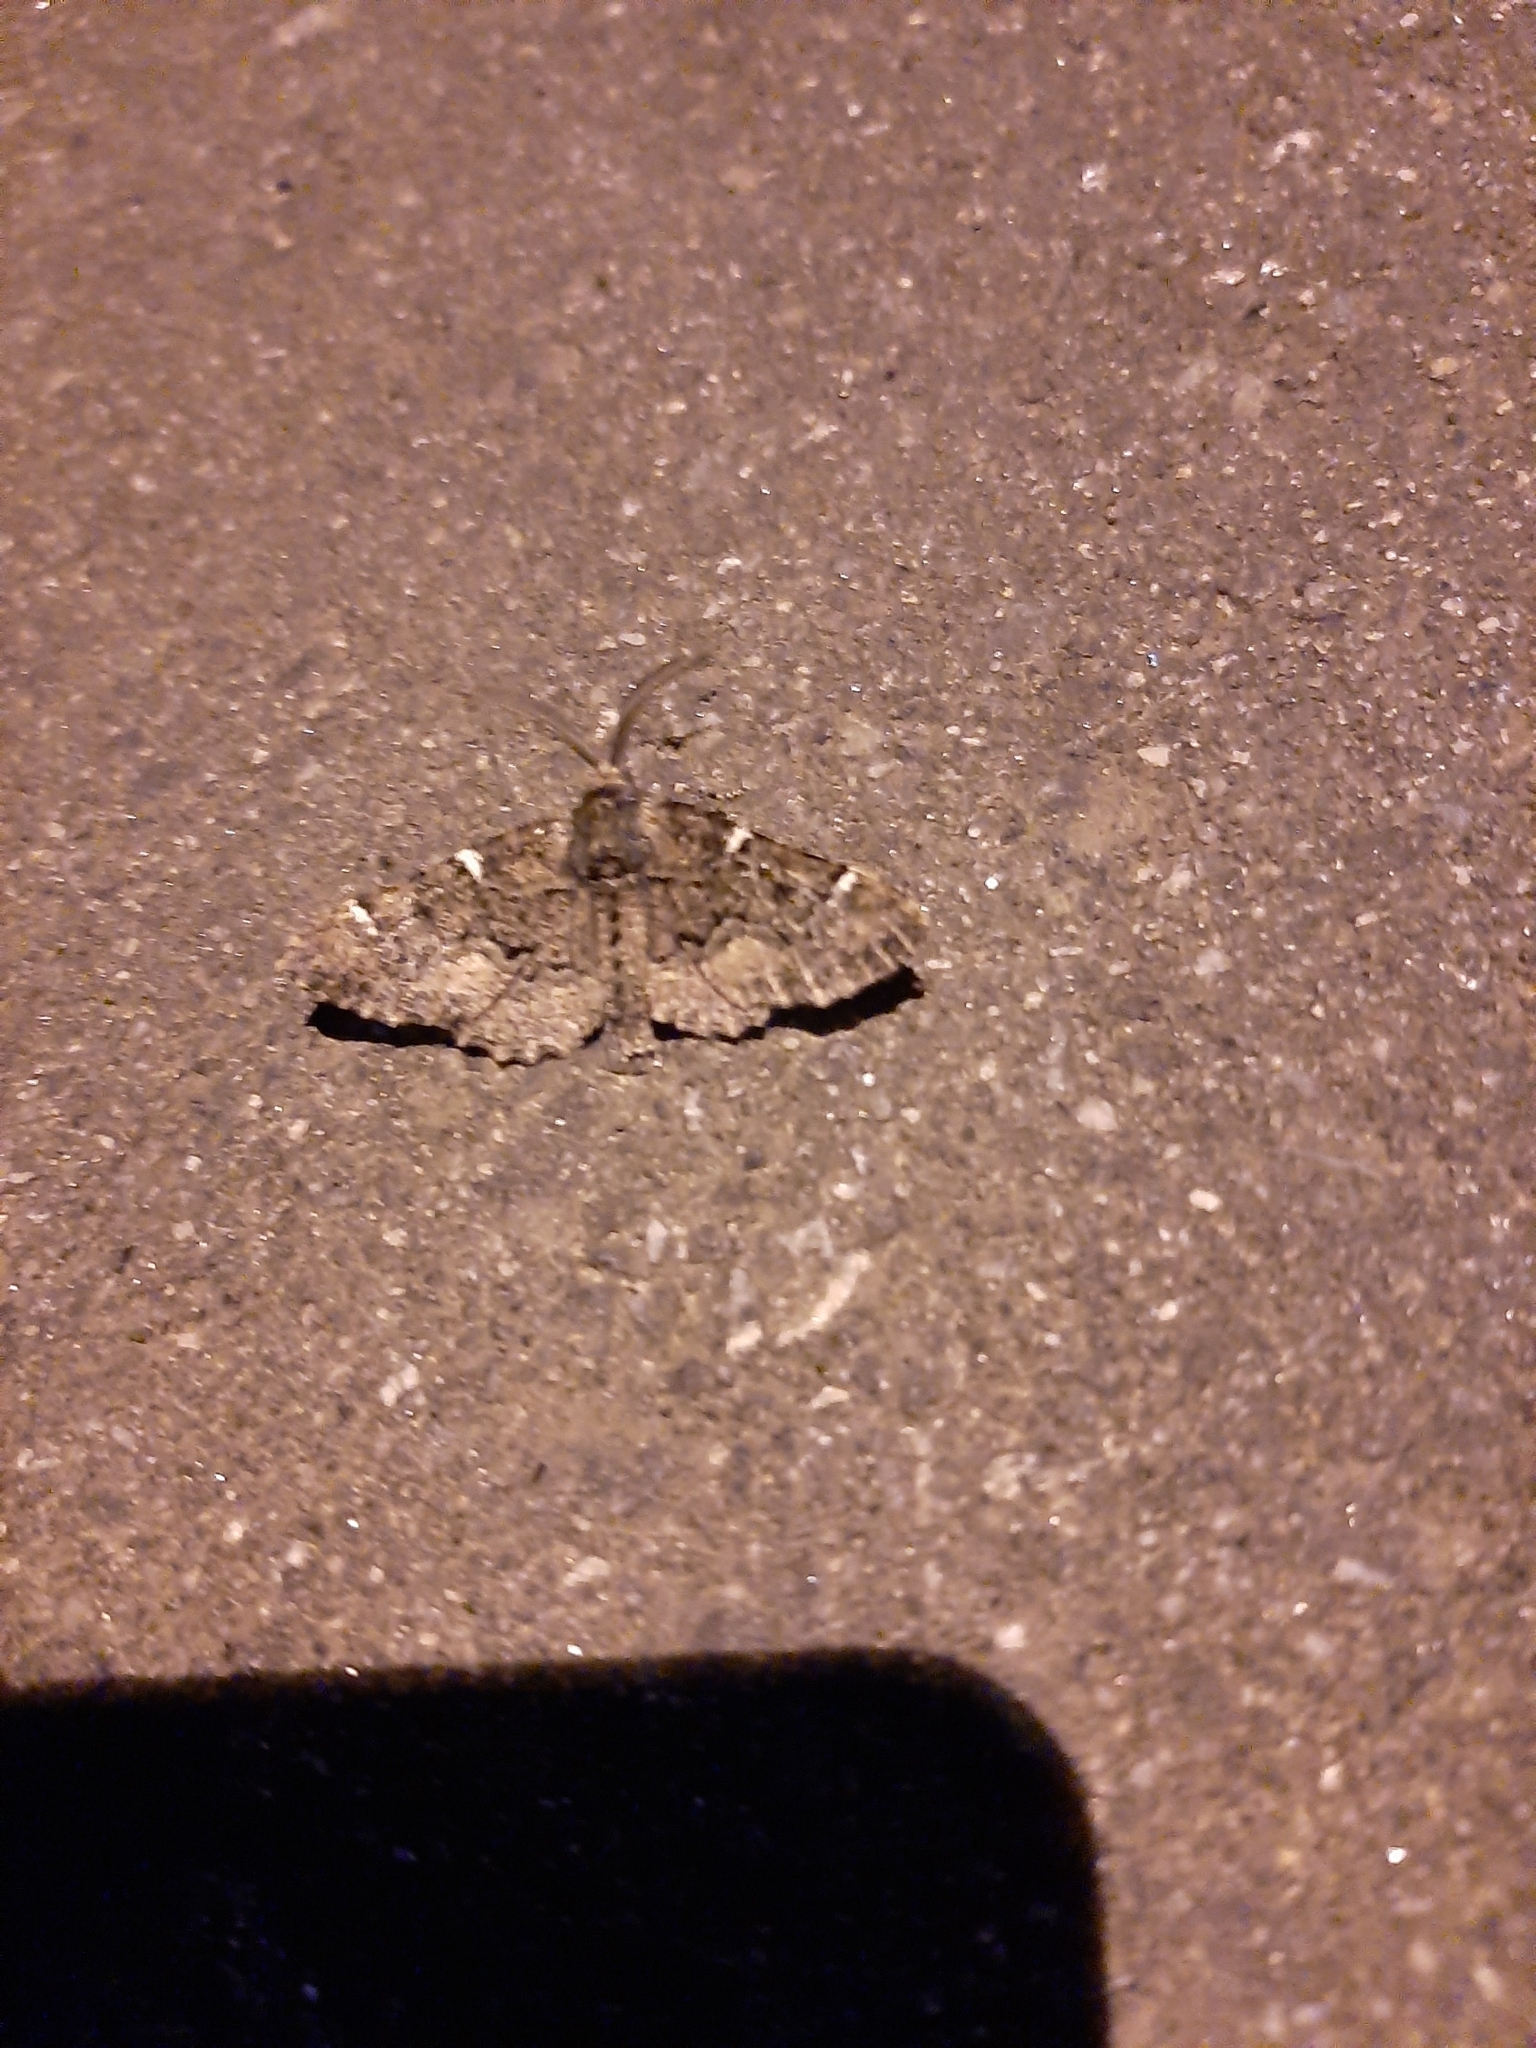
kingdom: Animalia
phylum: Arthropoda
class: Insecta
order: Lepidoptera
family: Geometridae
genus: Phaeoura
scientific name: Phaeoura quernaria
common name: Oak beauty
